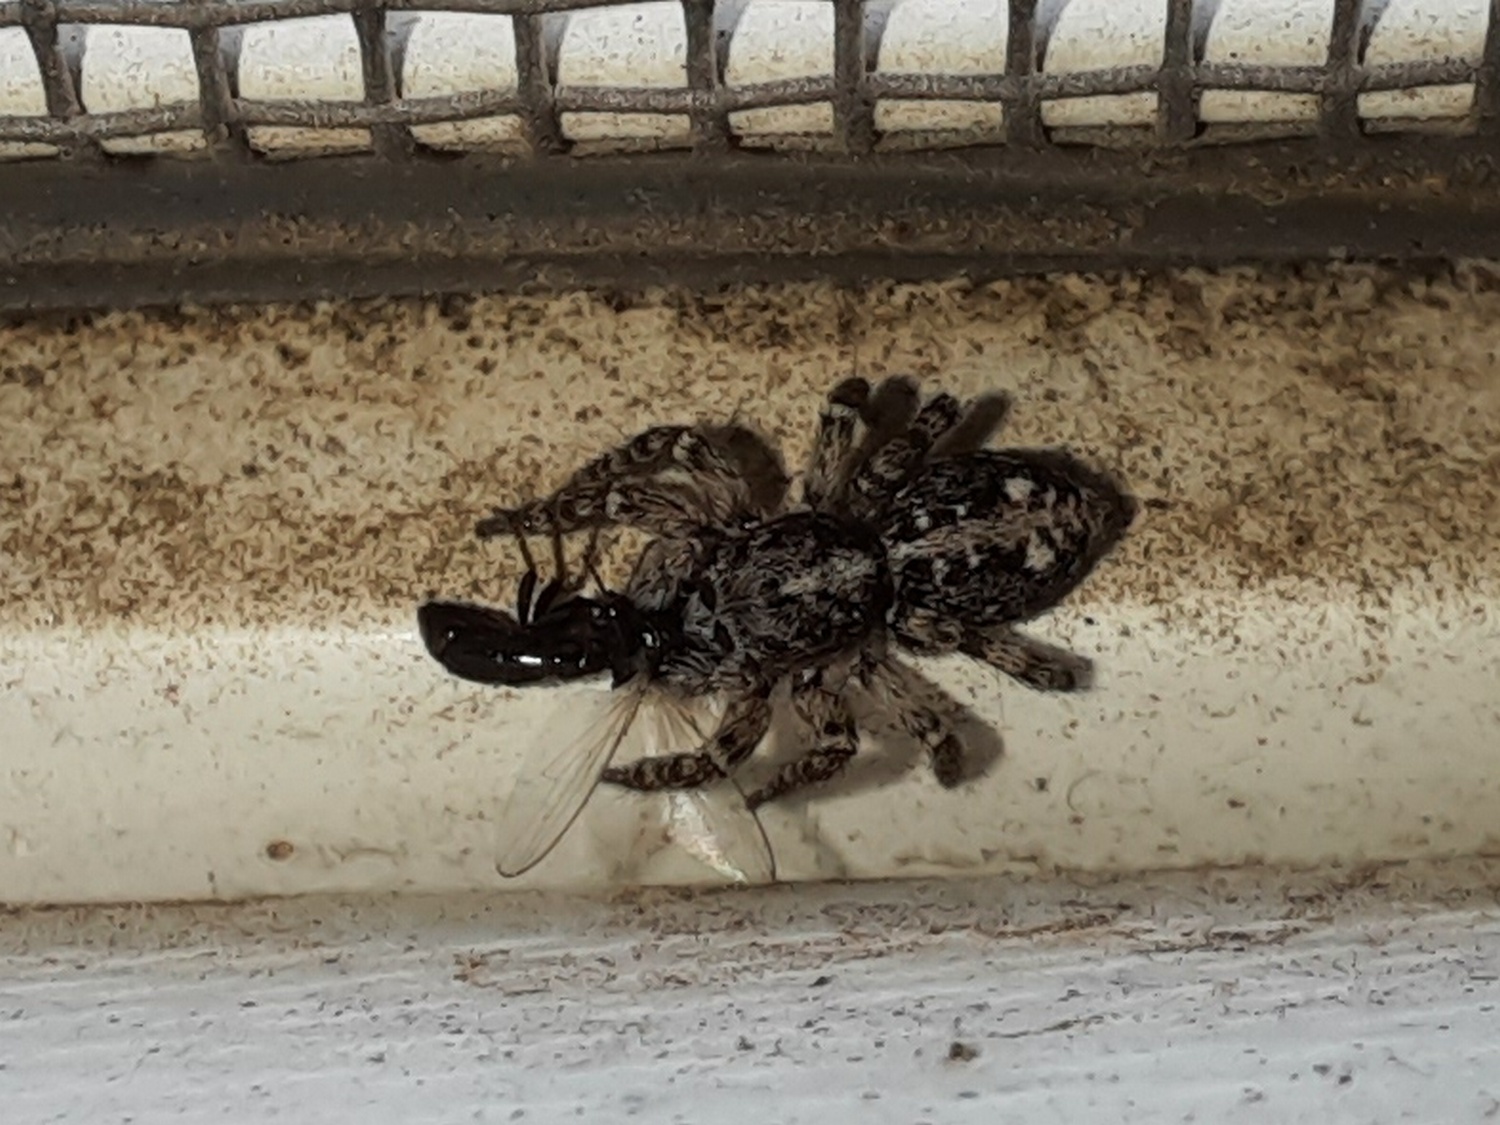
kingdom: Animalia
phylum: Arthropoda
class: Arachnida
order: Araneae
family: Salticidae
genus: Attulus
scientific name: Attulus terebratus
